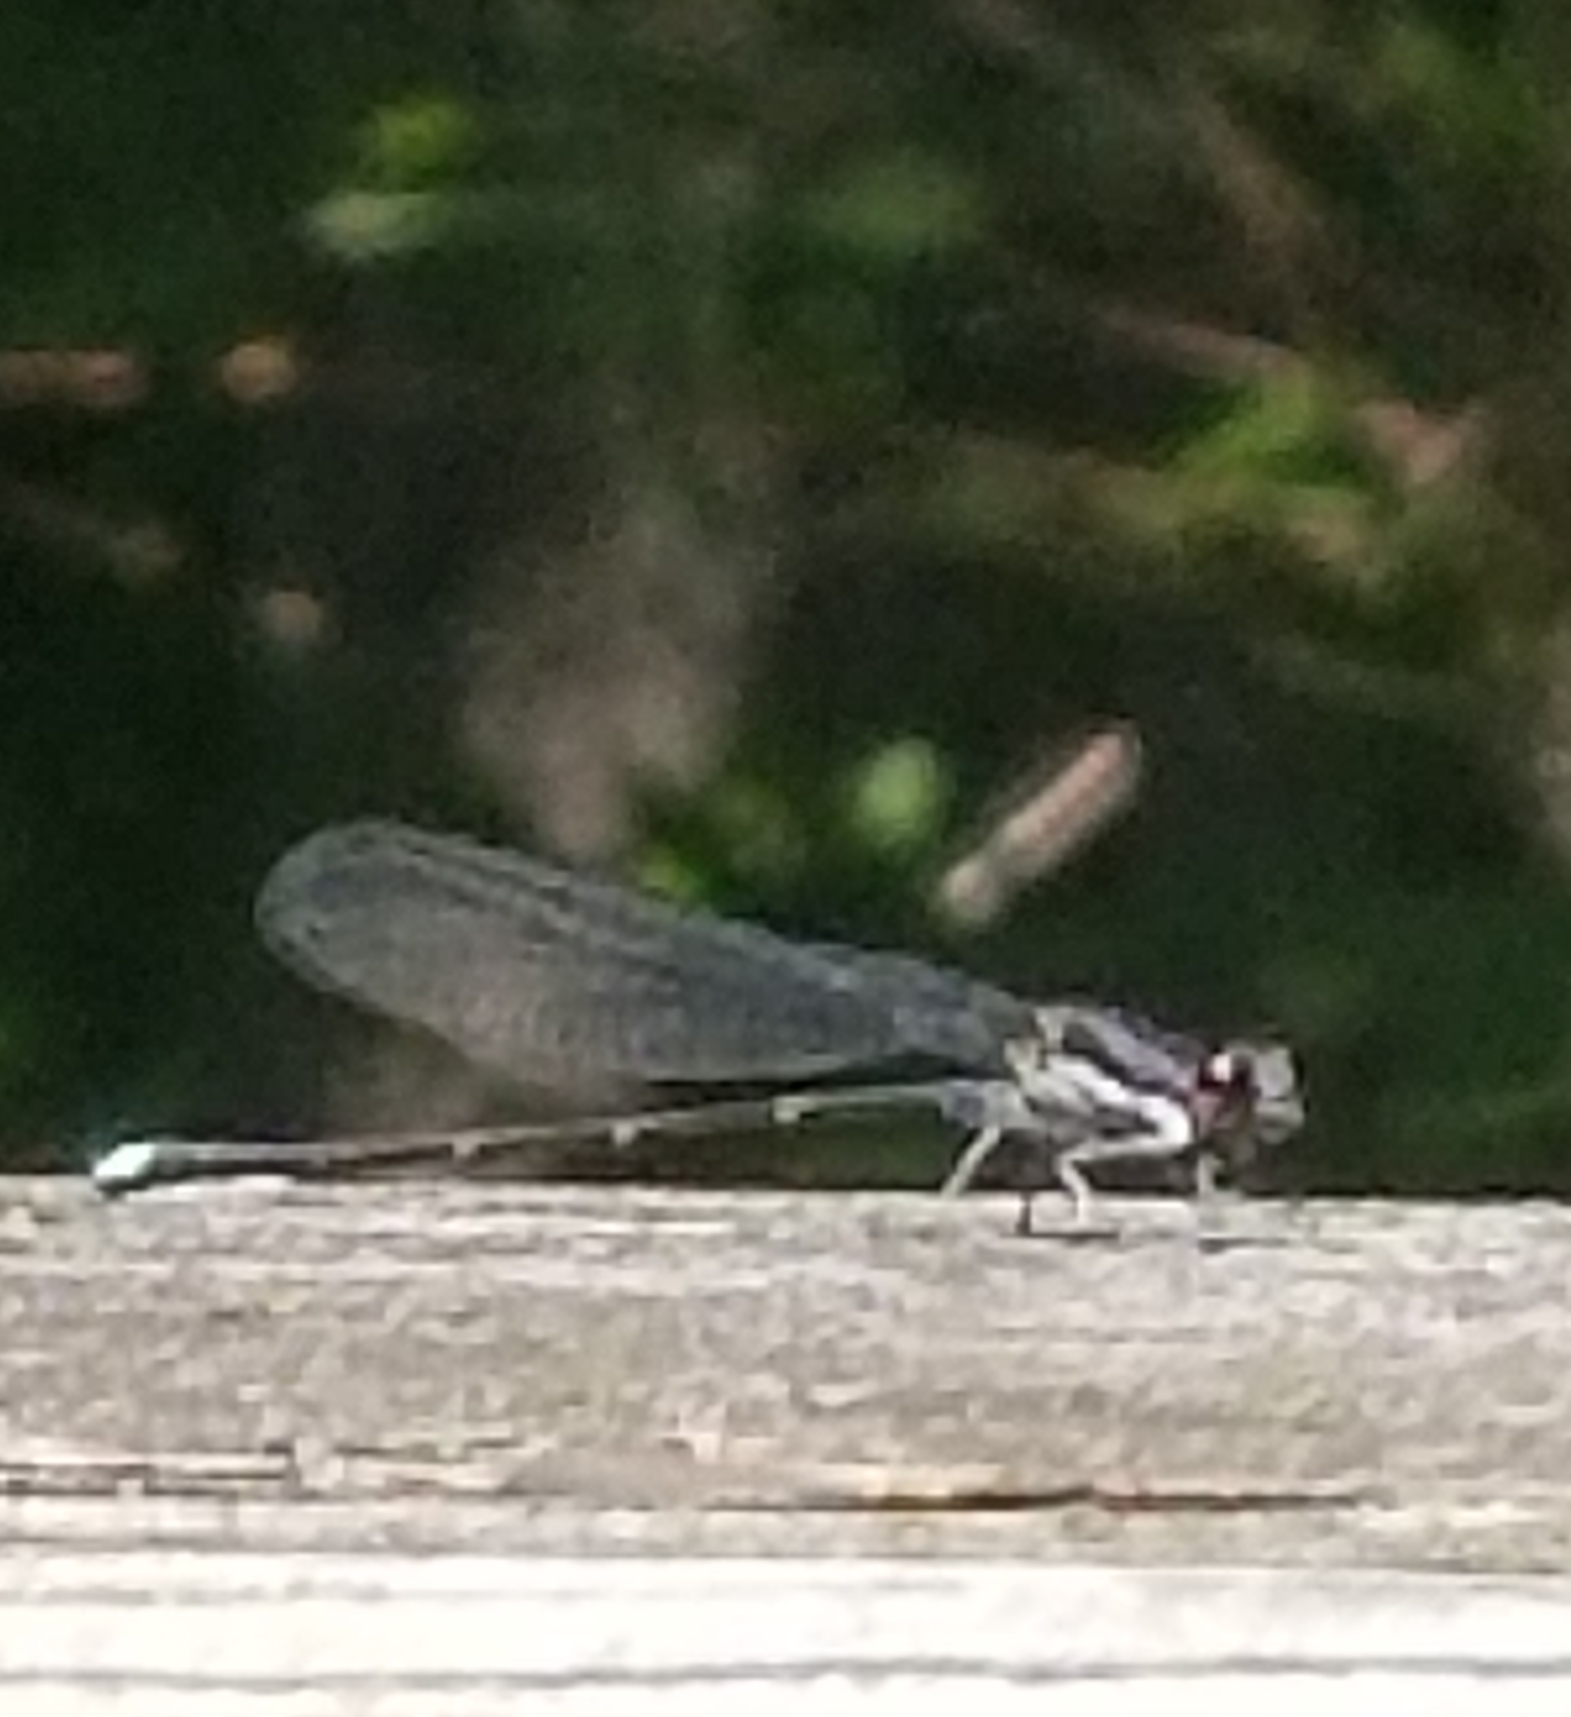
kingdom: Animalia
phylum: Arthropoda
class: Insecta
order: Odonata
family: Coenagrionidae
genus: Argia
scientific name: Argia tibialis
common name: Blue-tipped dancer
